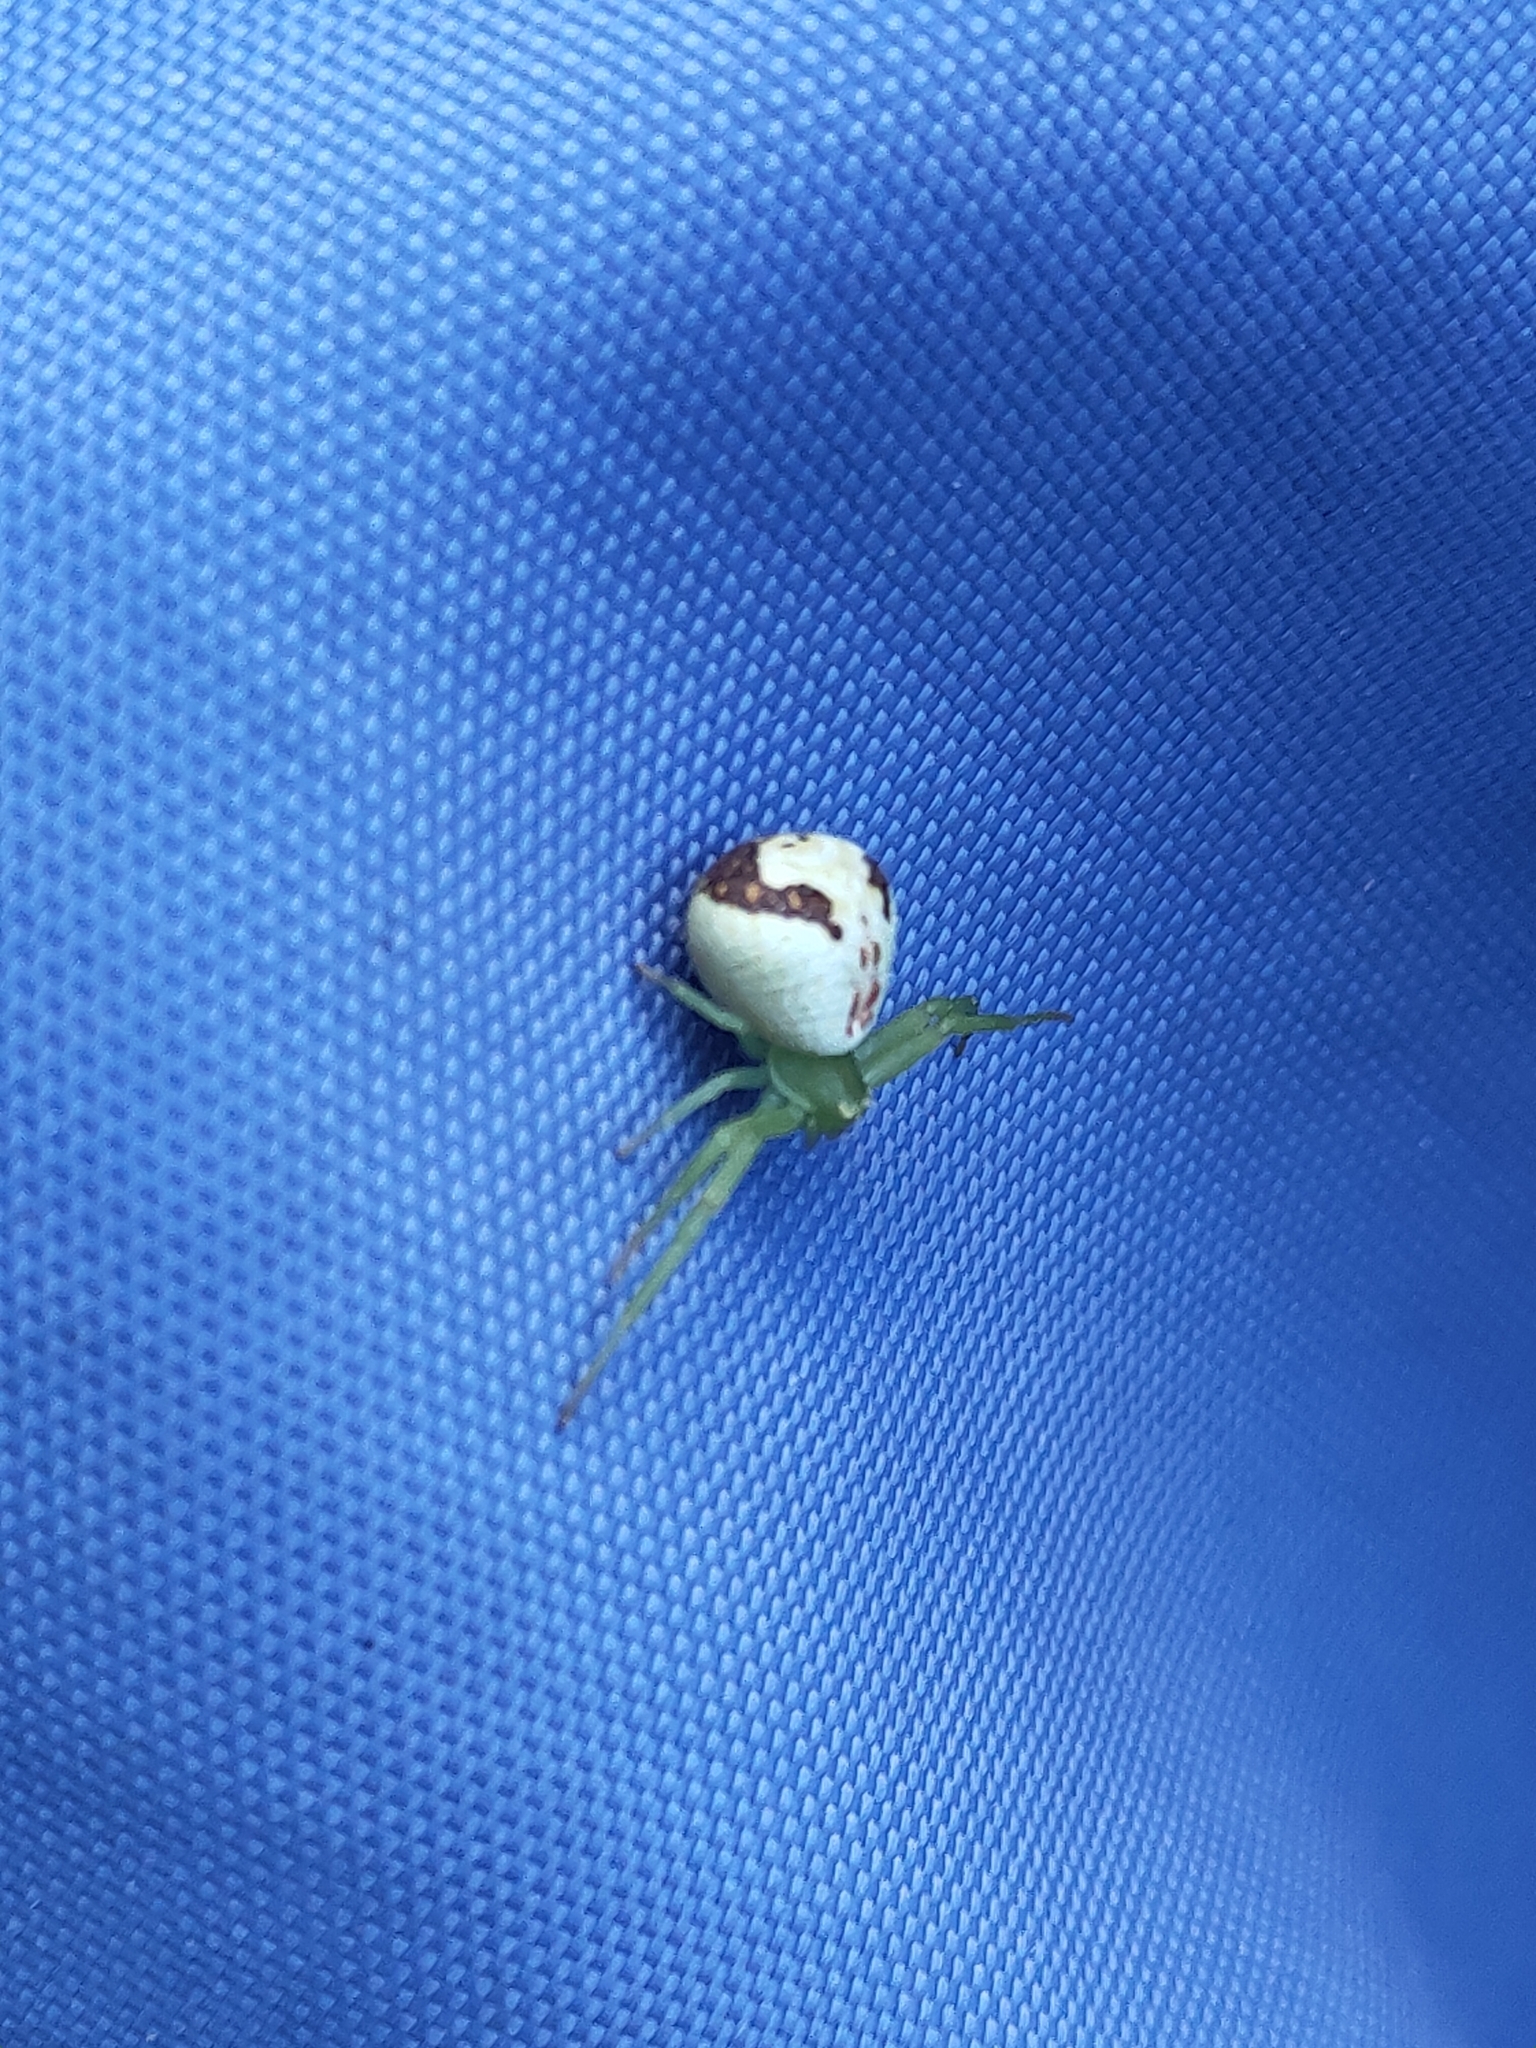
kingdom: Animalia
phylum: Arthropoda
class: Arachnida
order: Araneae
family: Thomisidae
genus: Ebrechtella
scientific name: Ebrechtella tricuspidata
